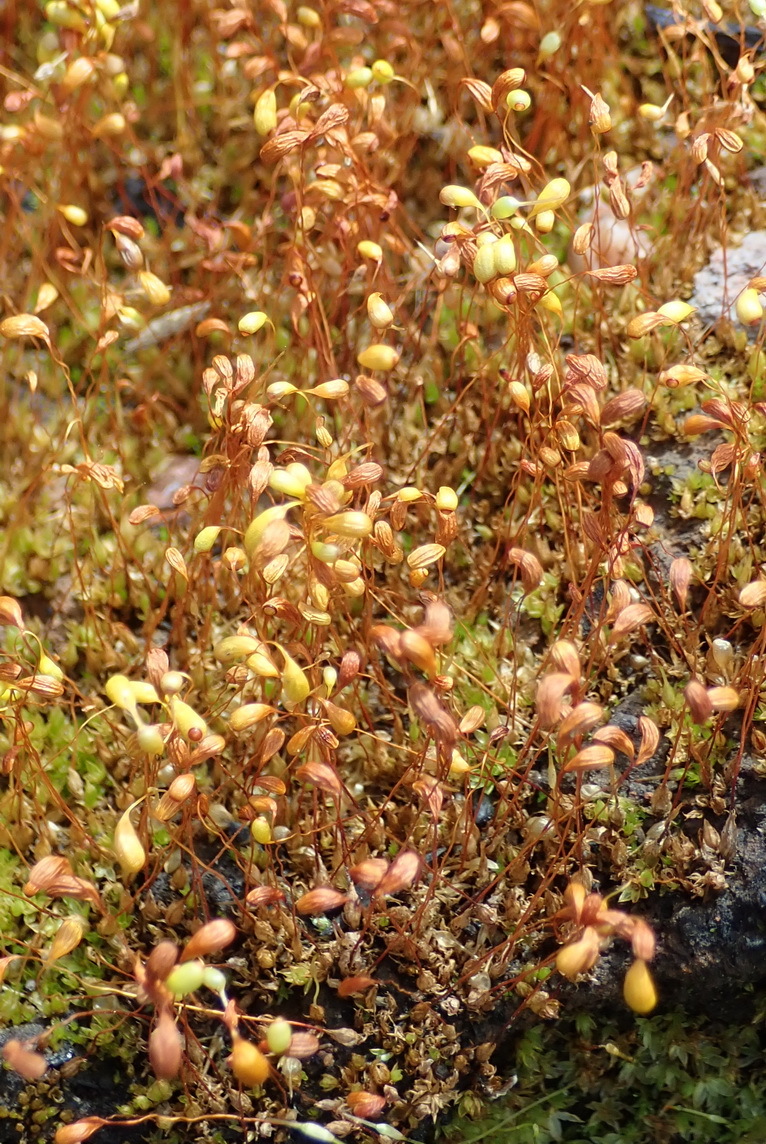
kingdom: Plantae
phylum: Bryophyta
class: Bryopsida
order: Funariales
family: Funariaceae
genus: Funaria
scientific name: Funaria hygrometrica
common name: Common cord moss
